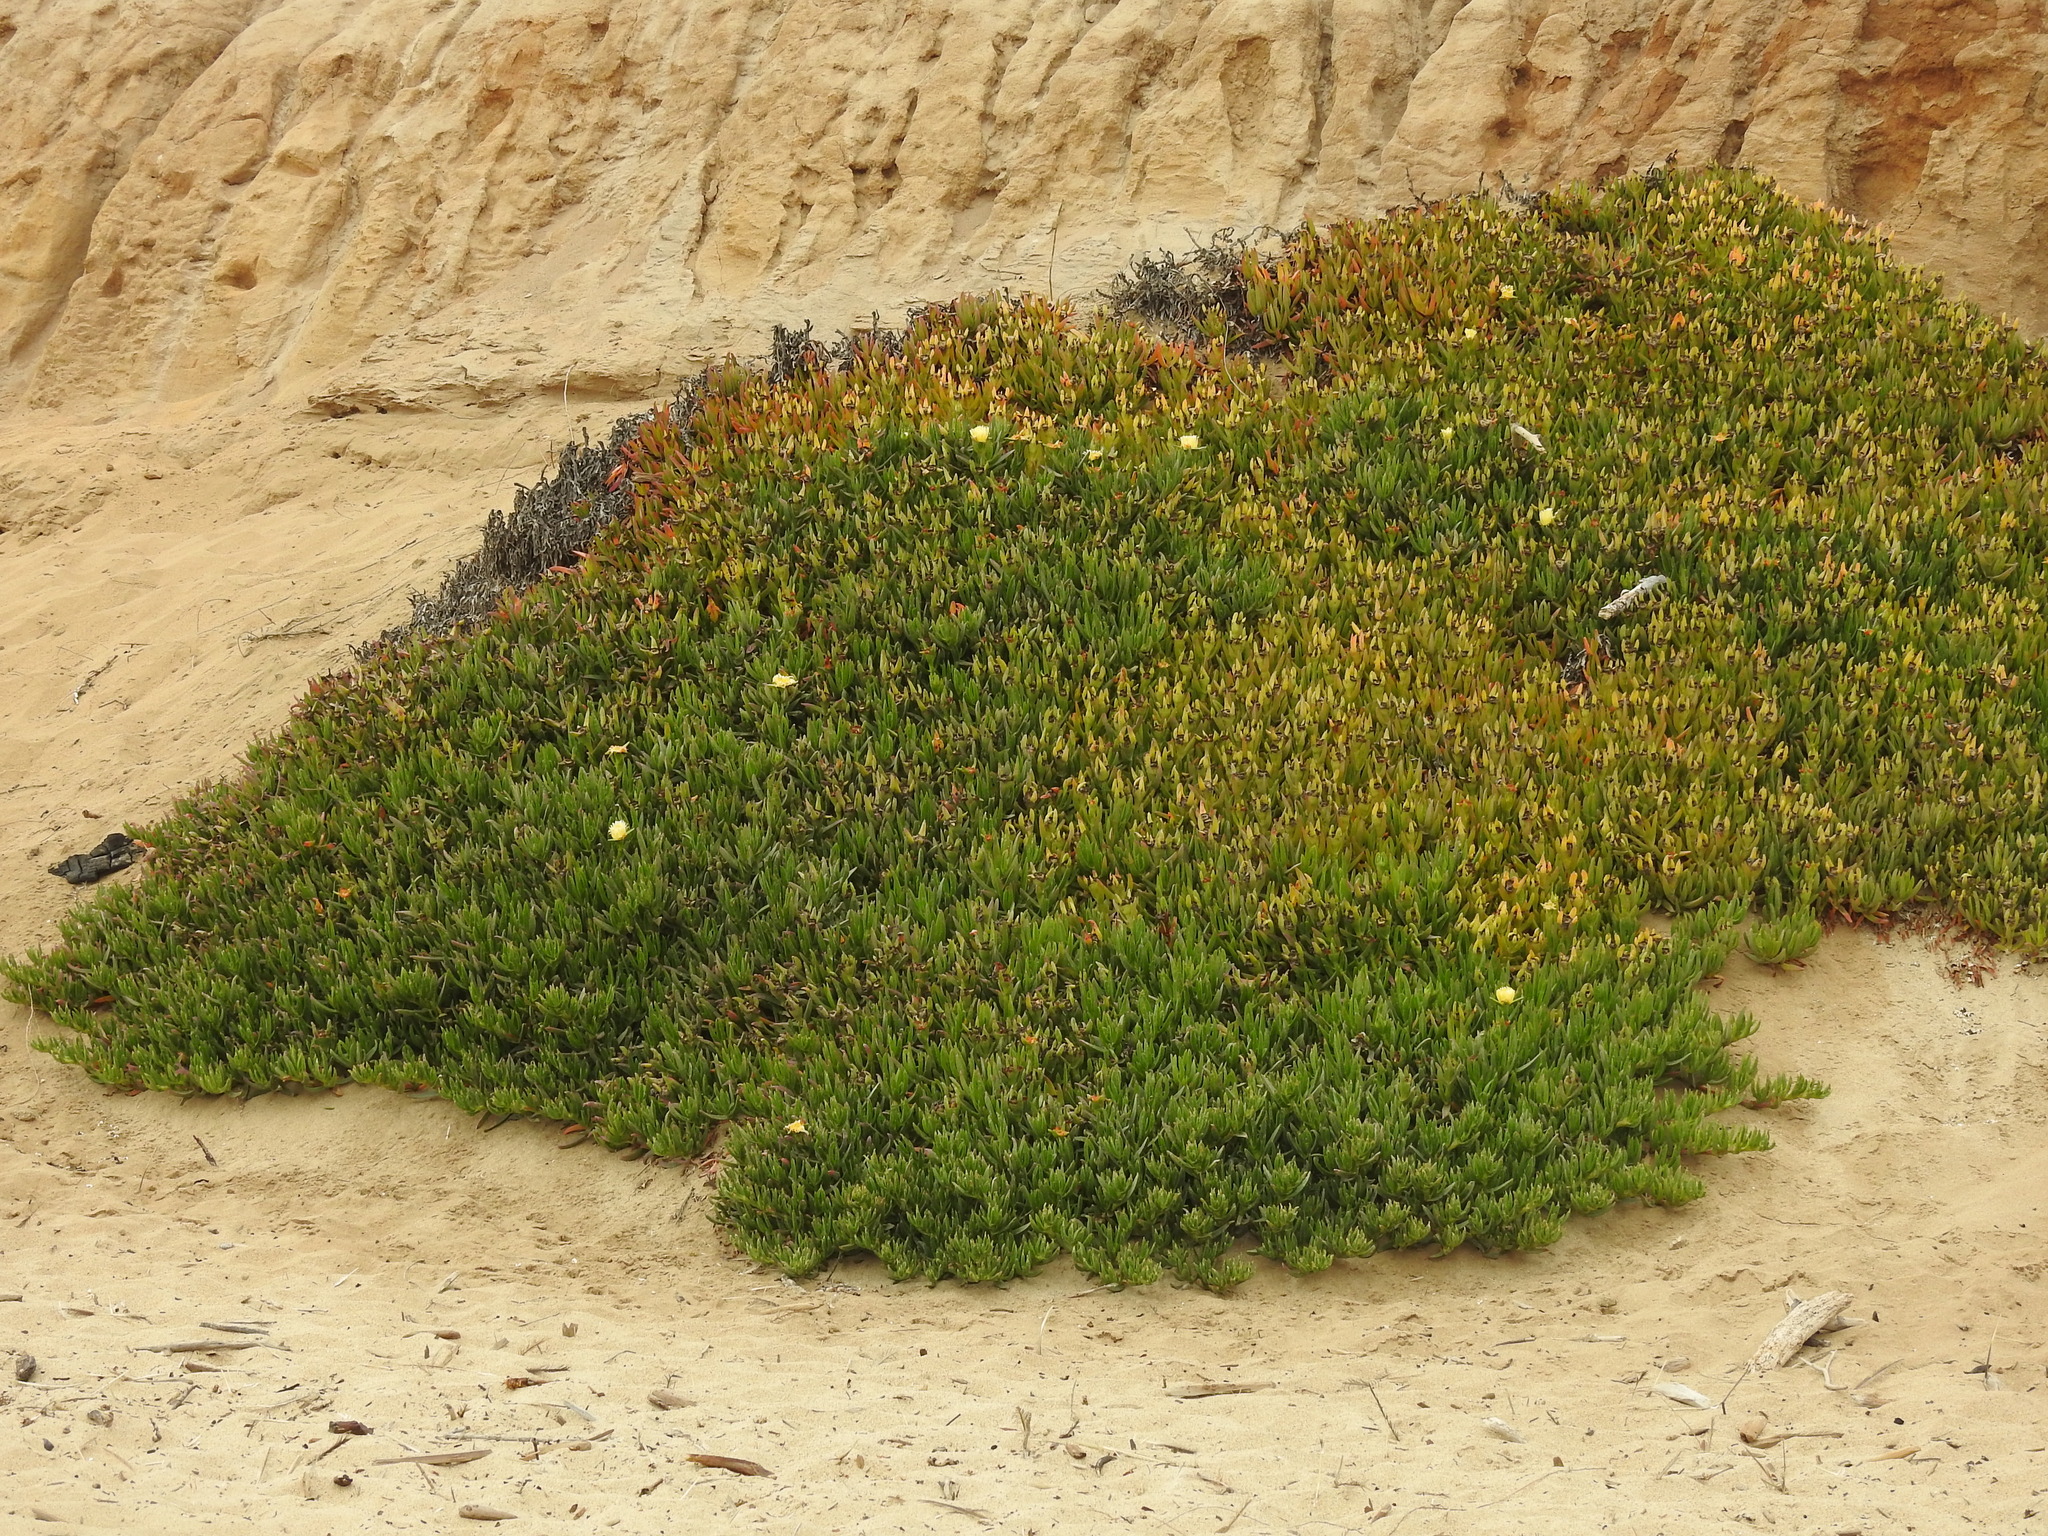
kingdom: Plantae
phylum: Tracheophyta
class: Magnoliopsida
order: Caryophyllales
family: Aizoaceae
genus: Carpobrotus
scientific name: Carpobrotus edulis
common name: Hottentot-fig
